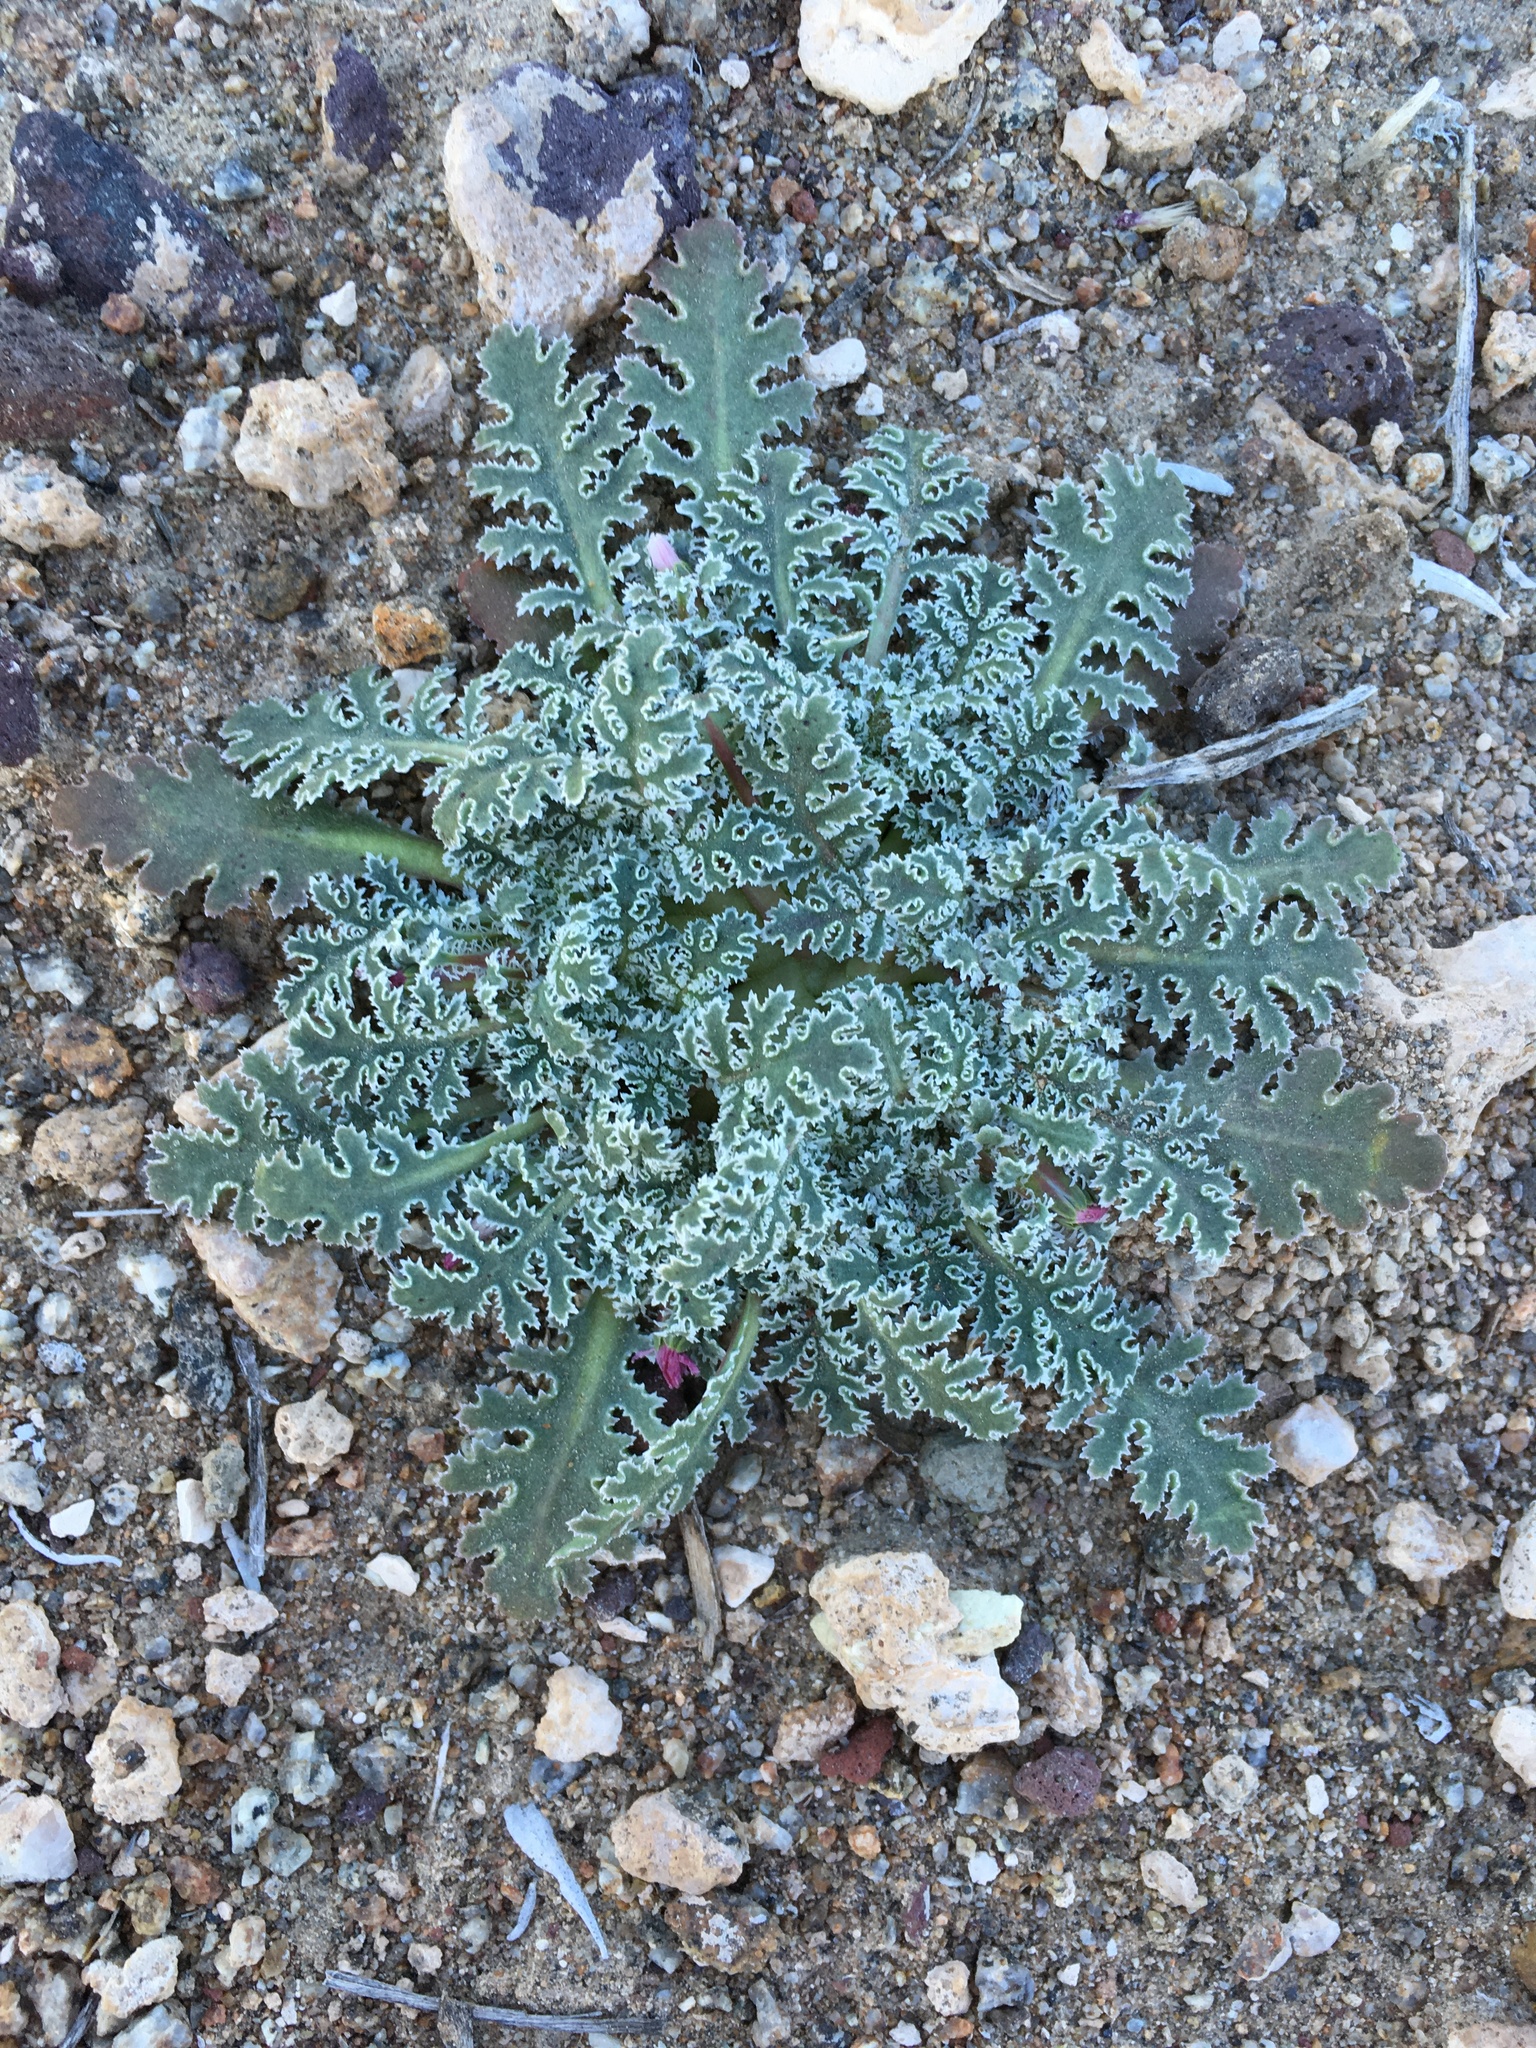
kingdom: Plantae
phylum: Tracheophyta
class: Magnoliopsida
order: Asterales
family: Asteraceae
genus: Glyptopleura
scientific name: Glyptopleura marginata
